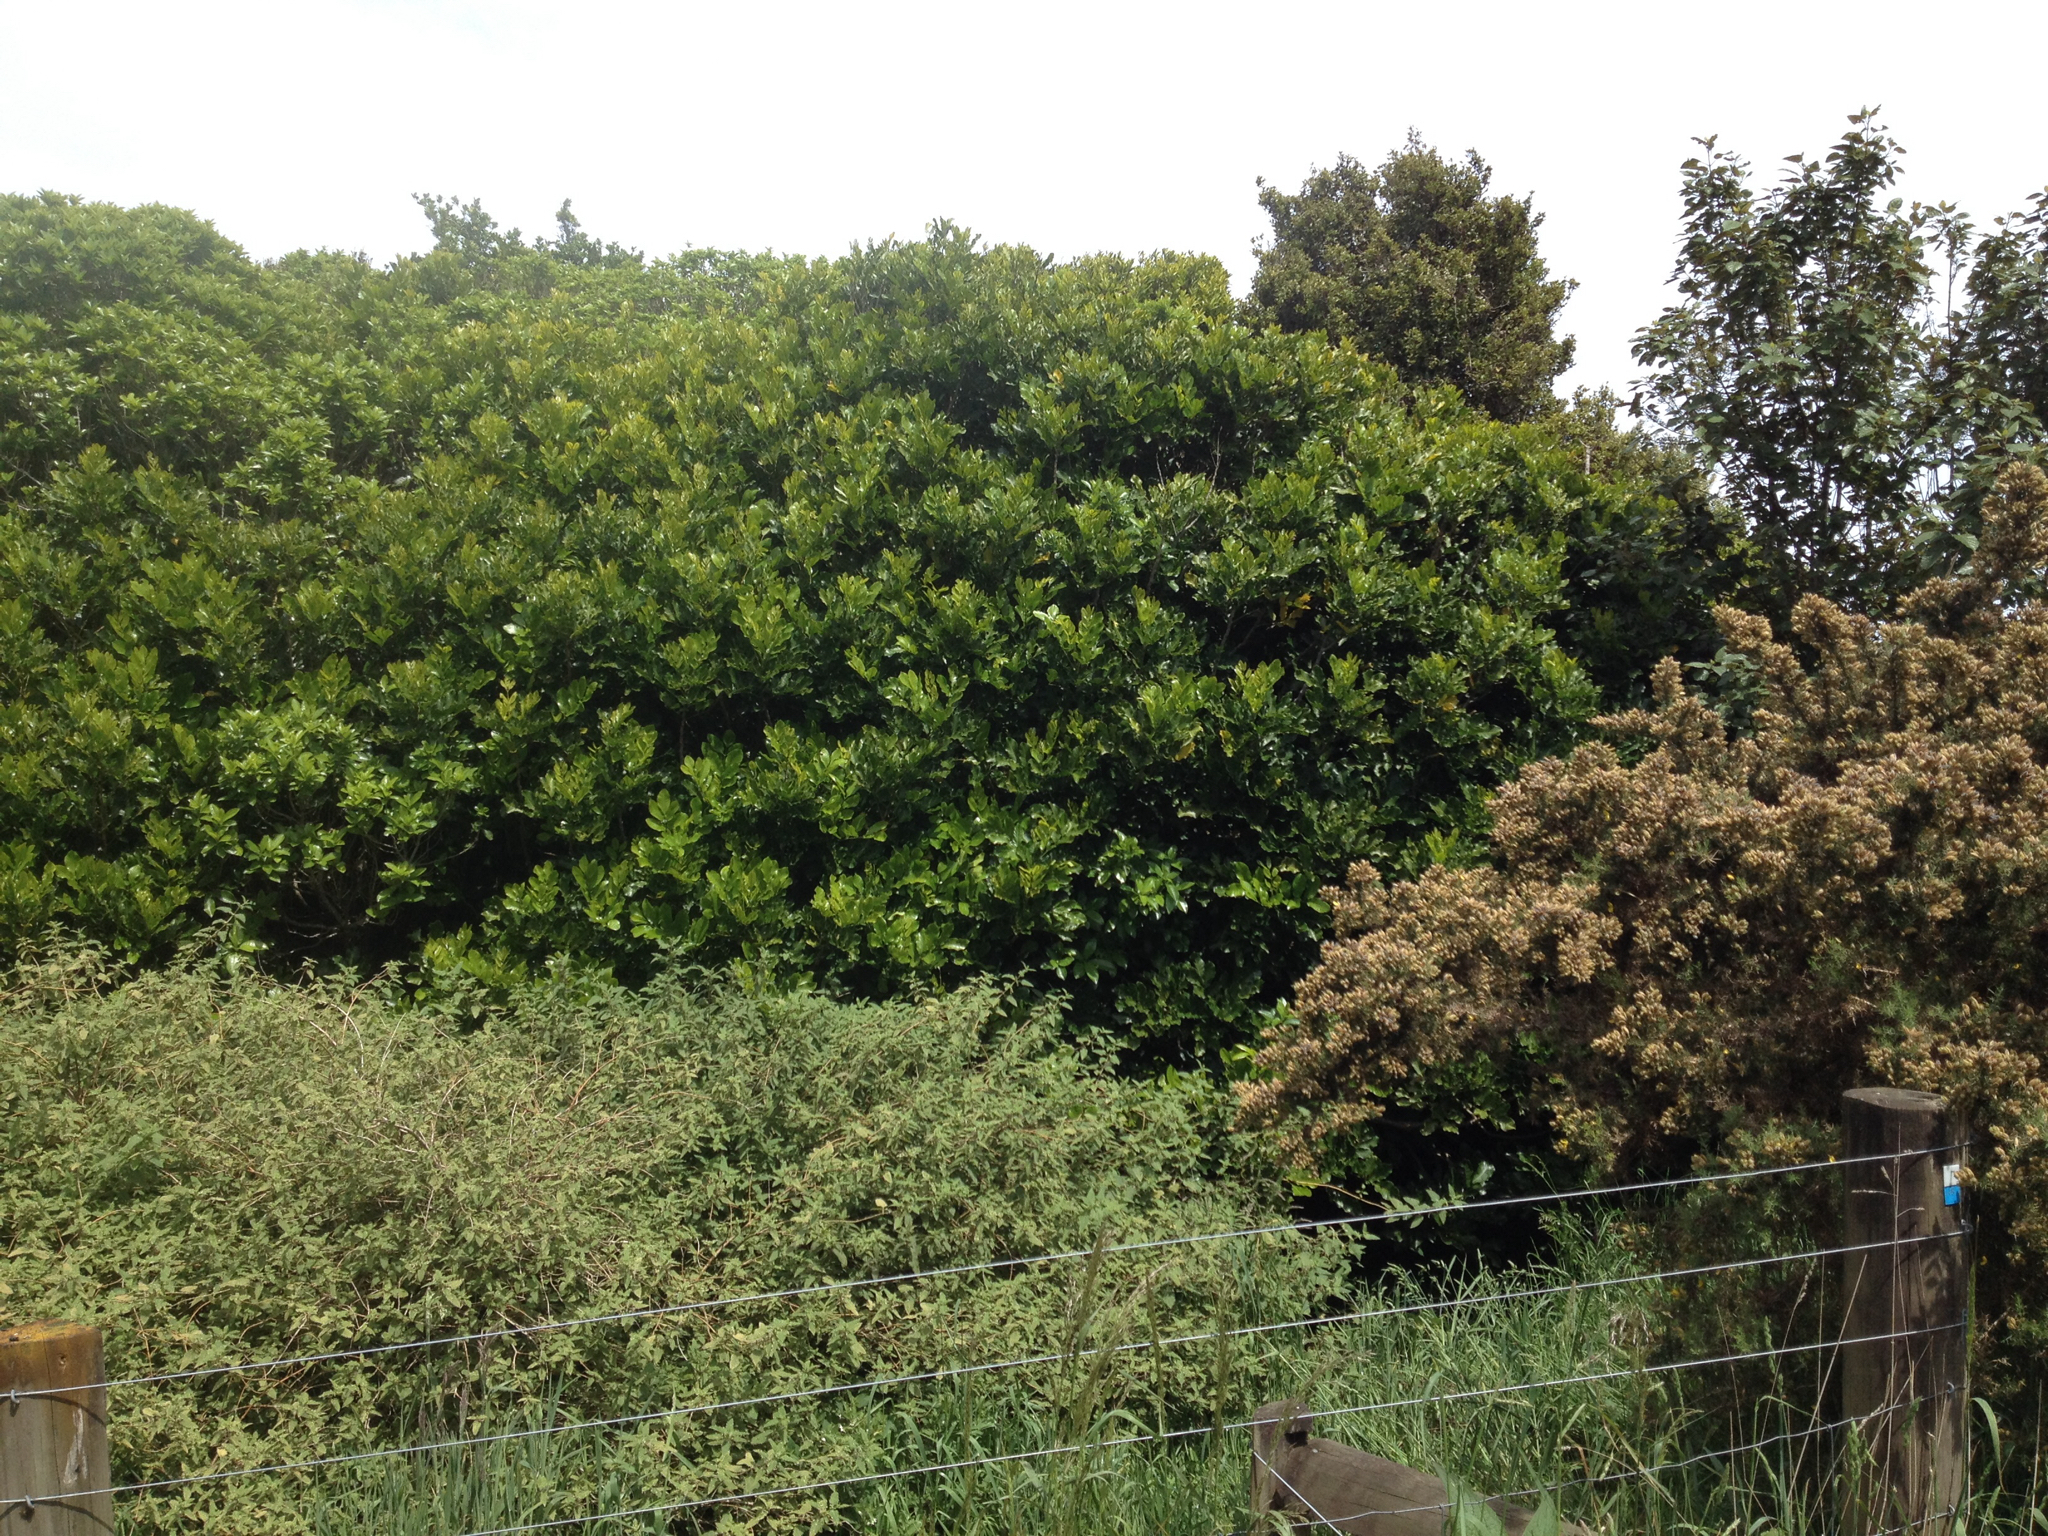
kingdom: Plantae
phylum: Tracheophyta
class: Magnoliopsida
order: Sapindales
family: Meliaceae
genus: Didymocheton
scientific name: Didymocheton spectabilis
